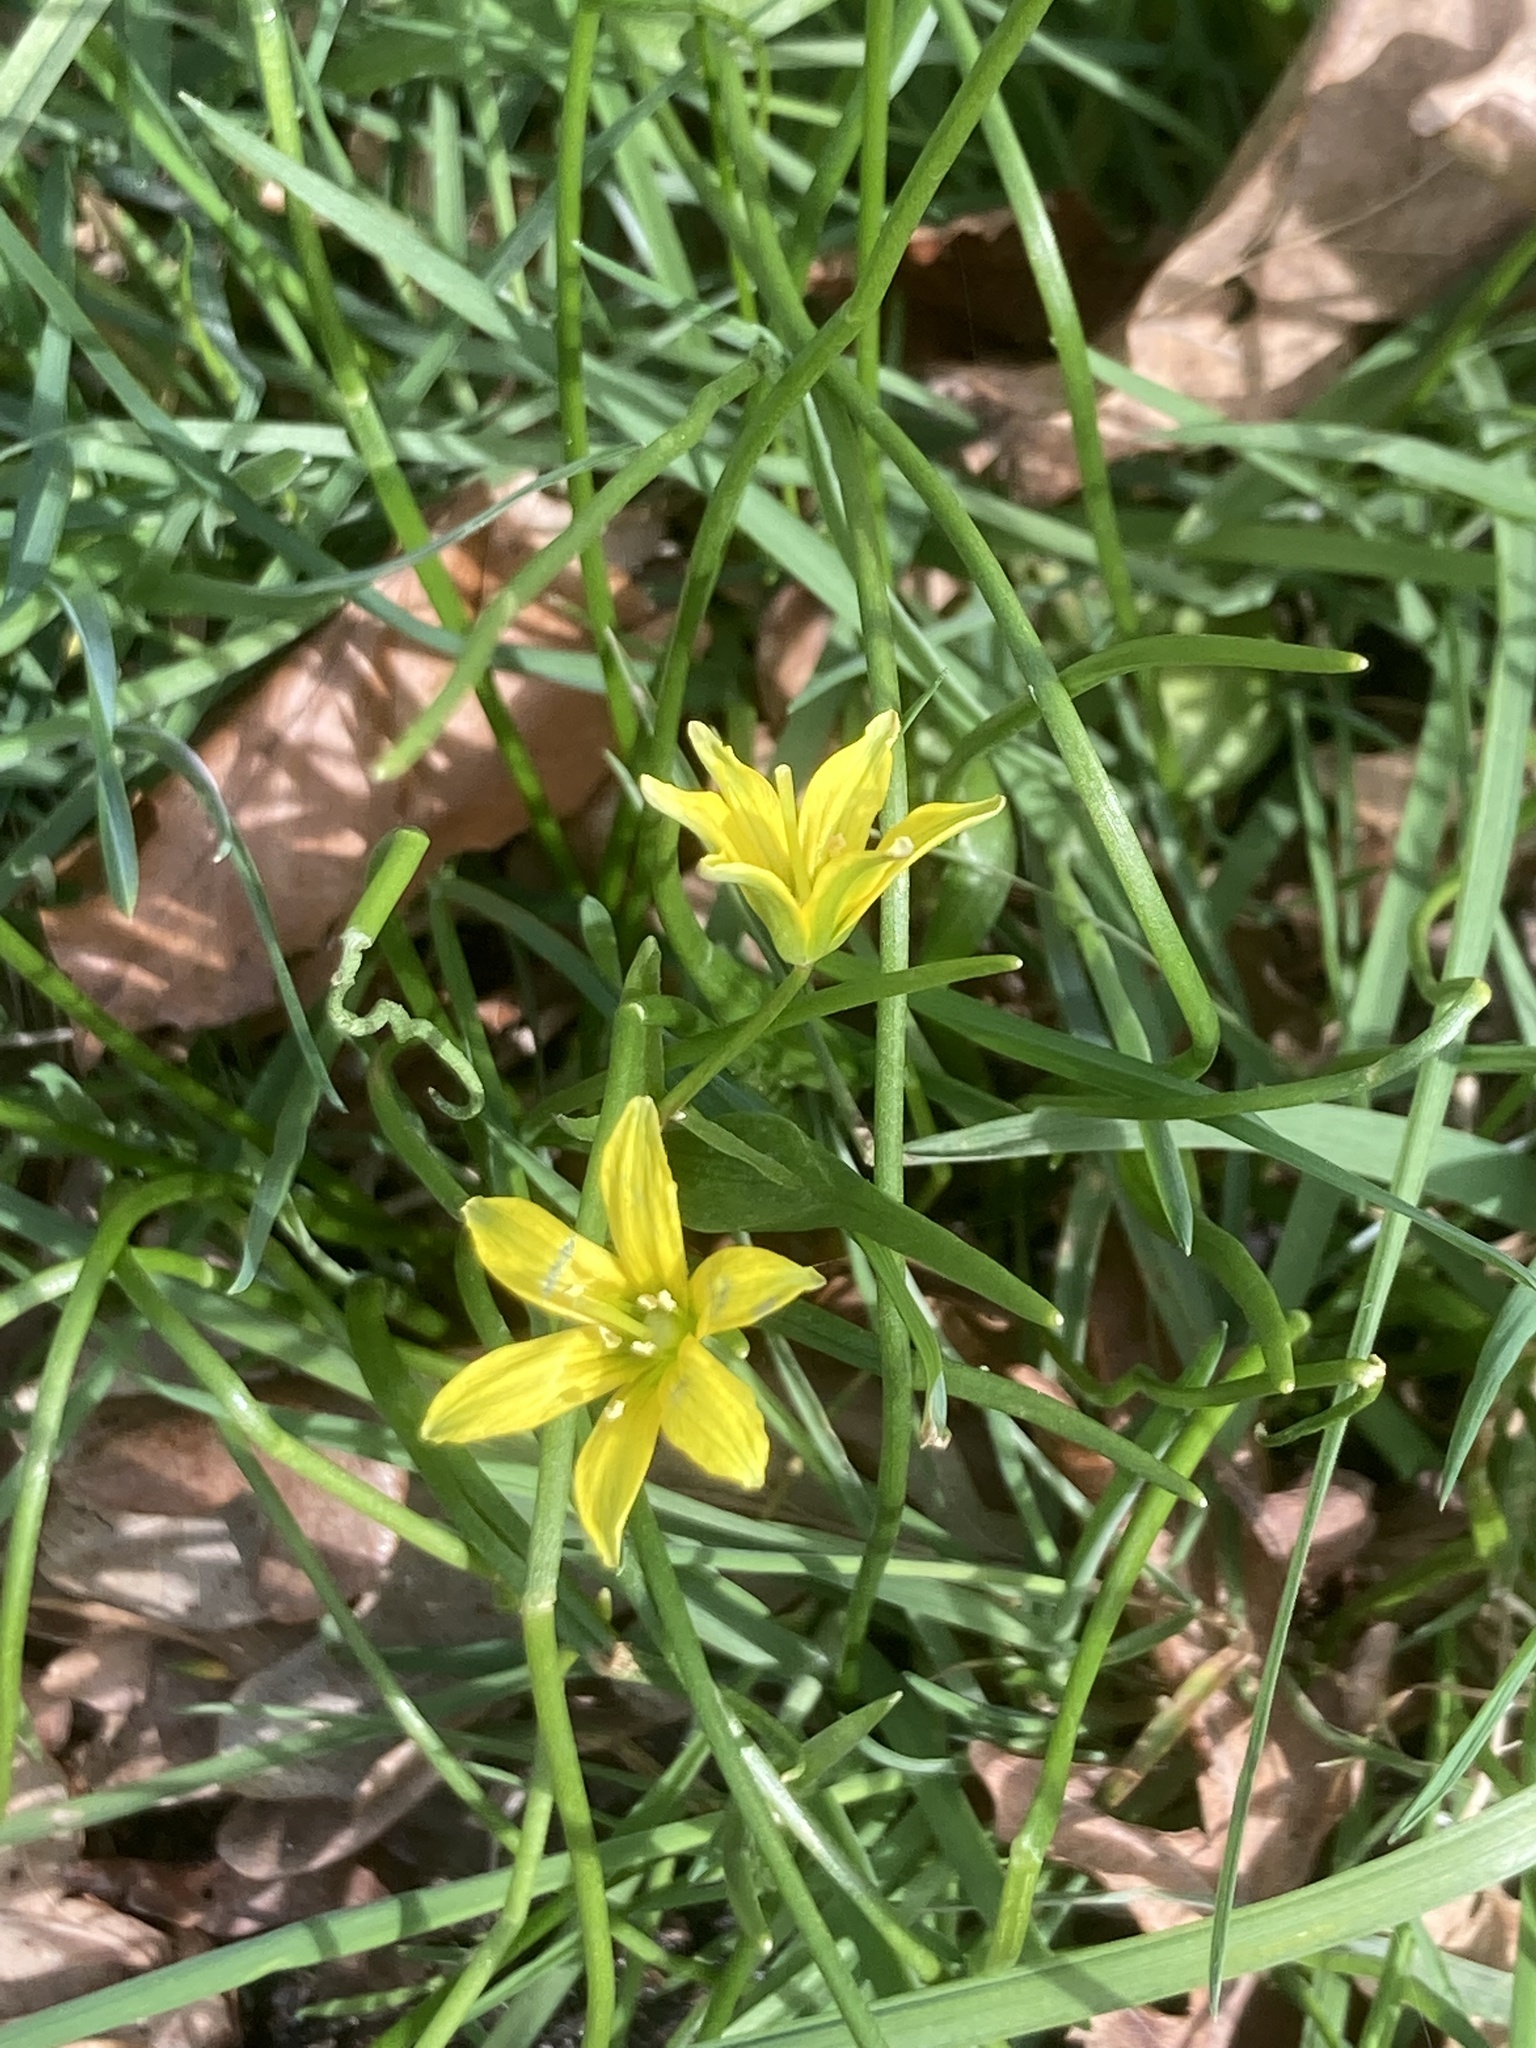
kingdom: Plantae
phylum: Tracheophyta
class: Liliopsida
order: Liliales
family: Liliaceae
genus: Gagea
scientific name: Gagea spathacea
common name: Belgian gagea
